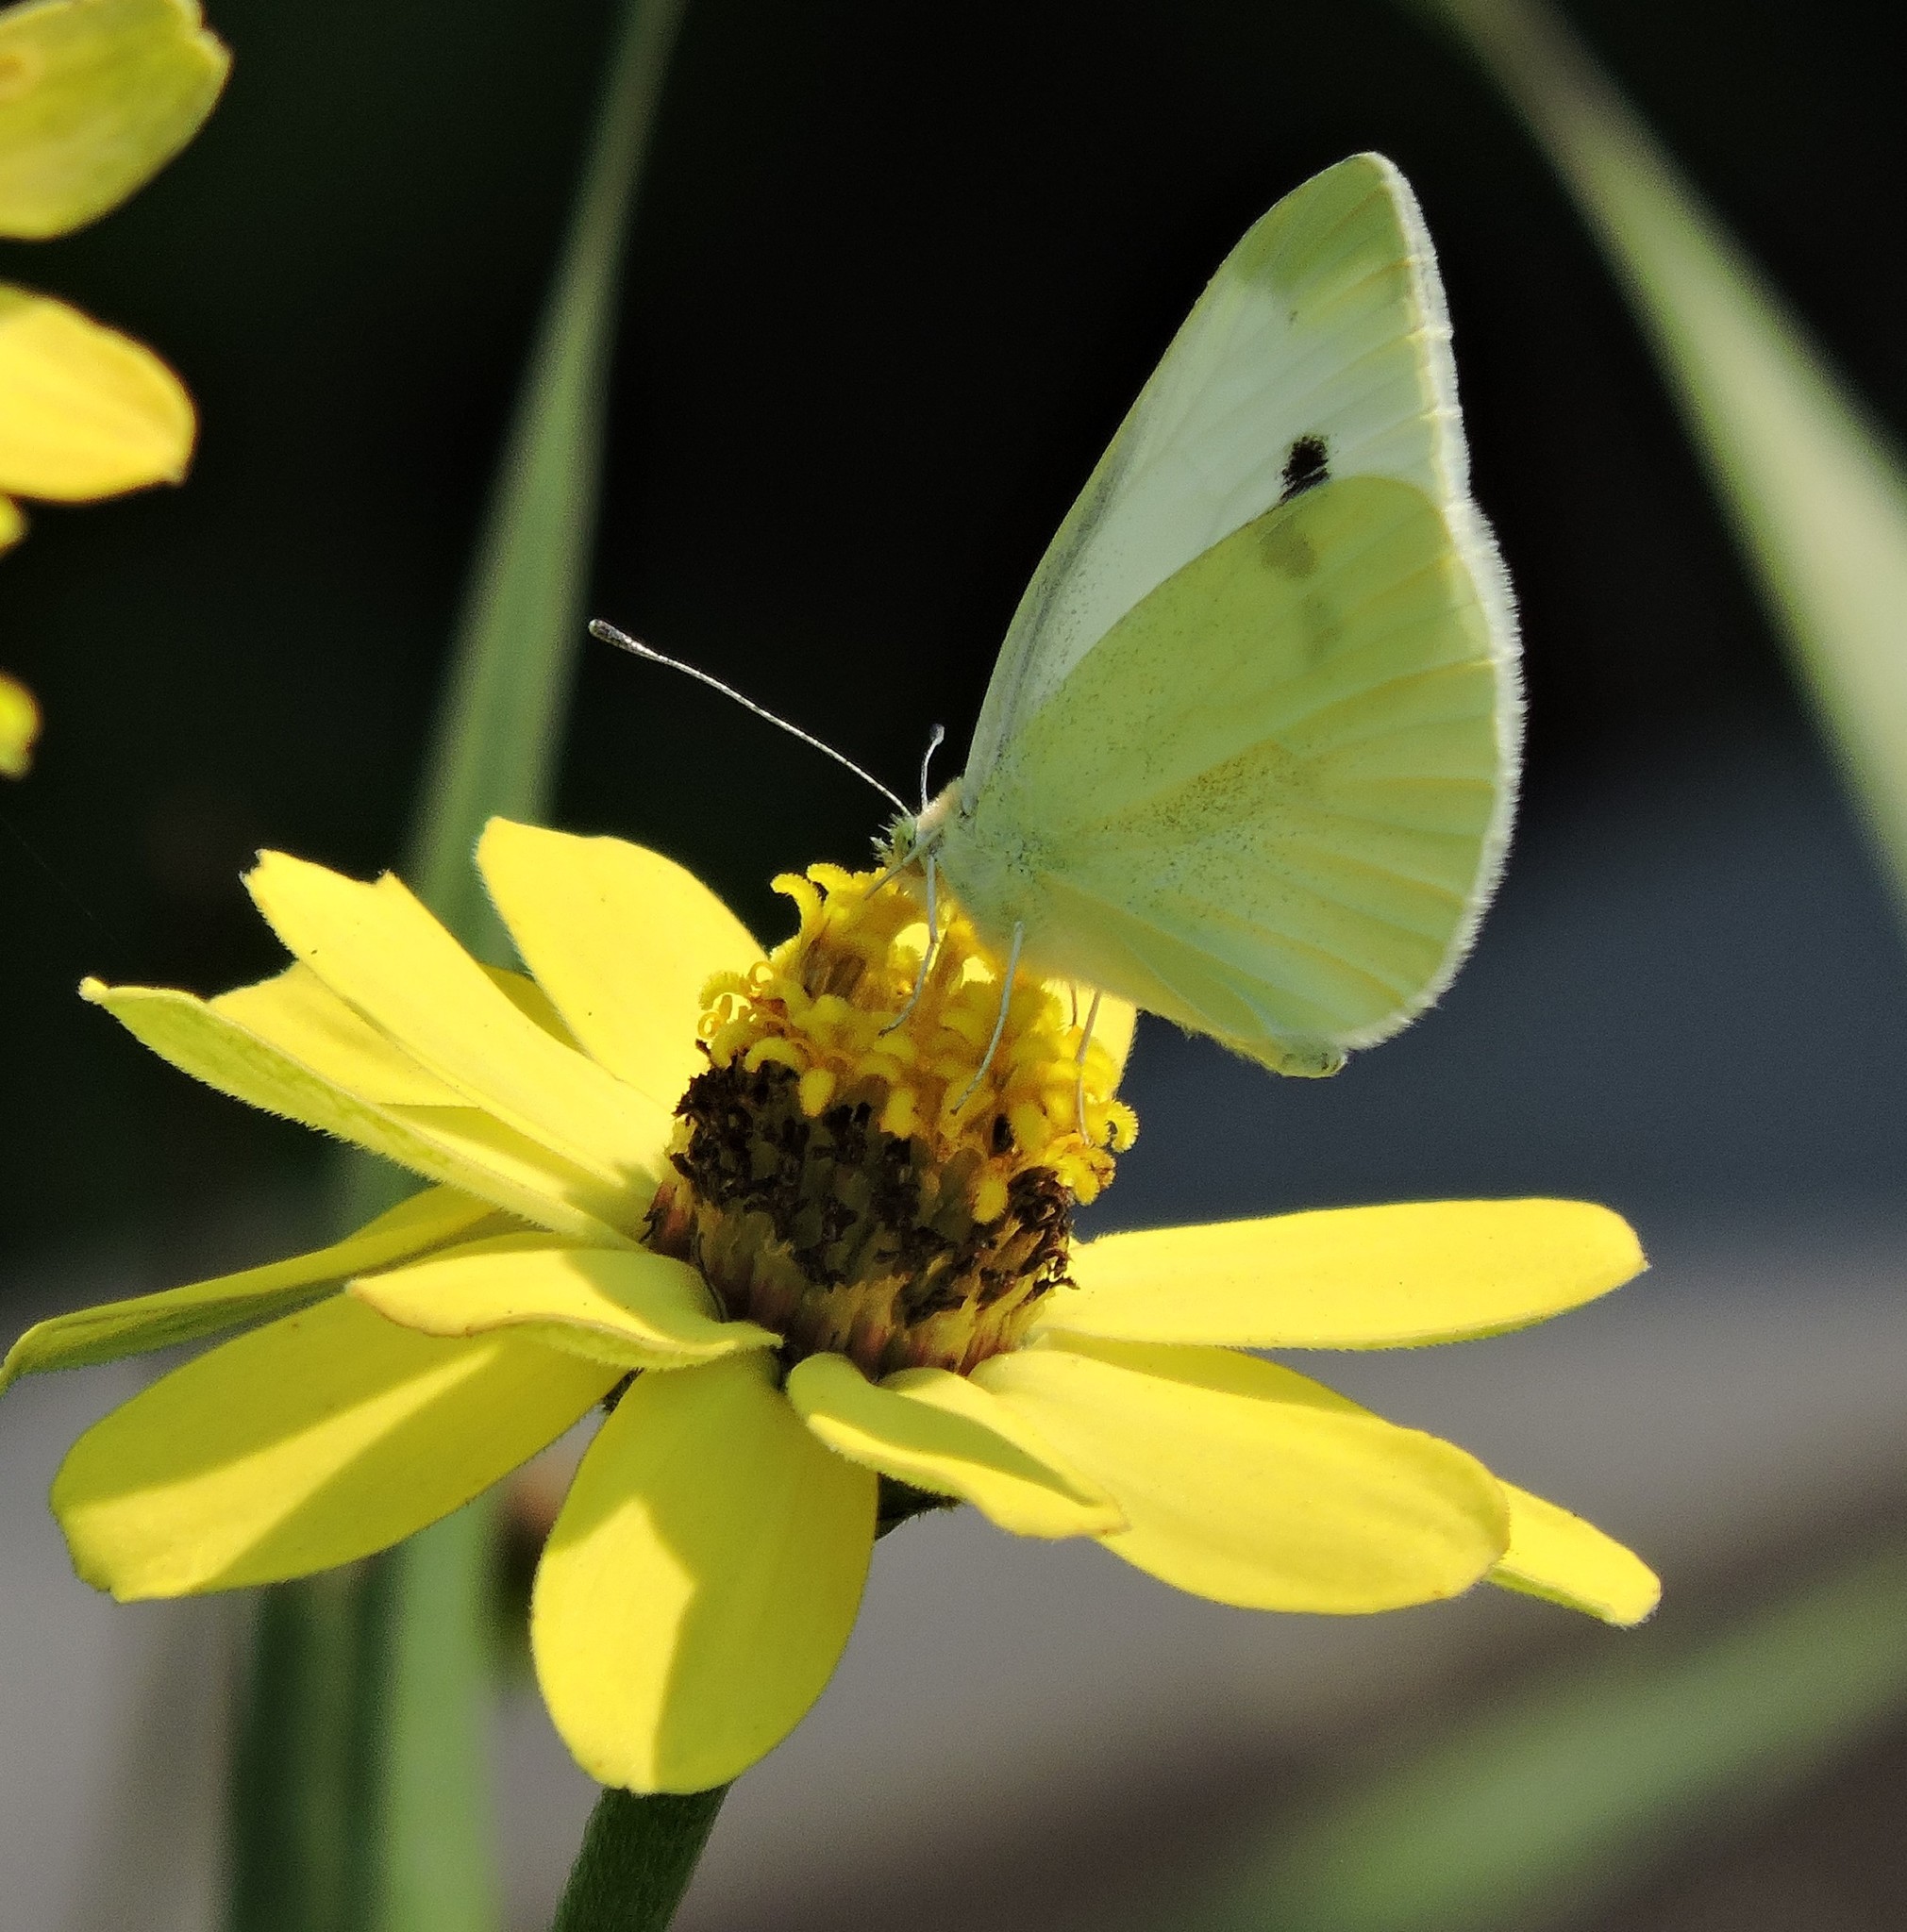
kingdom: Animalia
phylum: Arthropoda
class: Insecta
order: Lepidoptera
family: Pieridae
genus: Pieris
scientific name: Pieris rapae
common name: Small white
